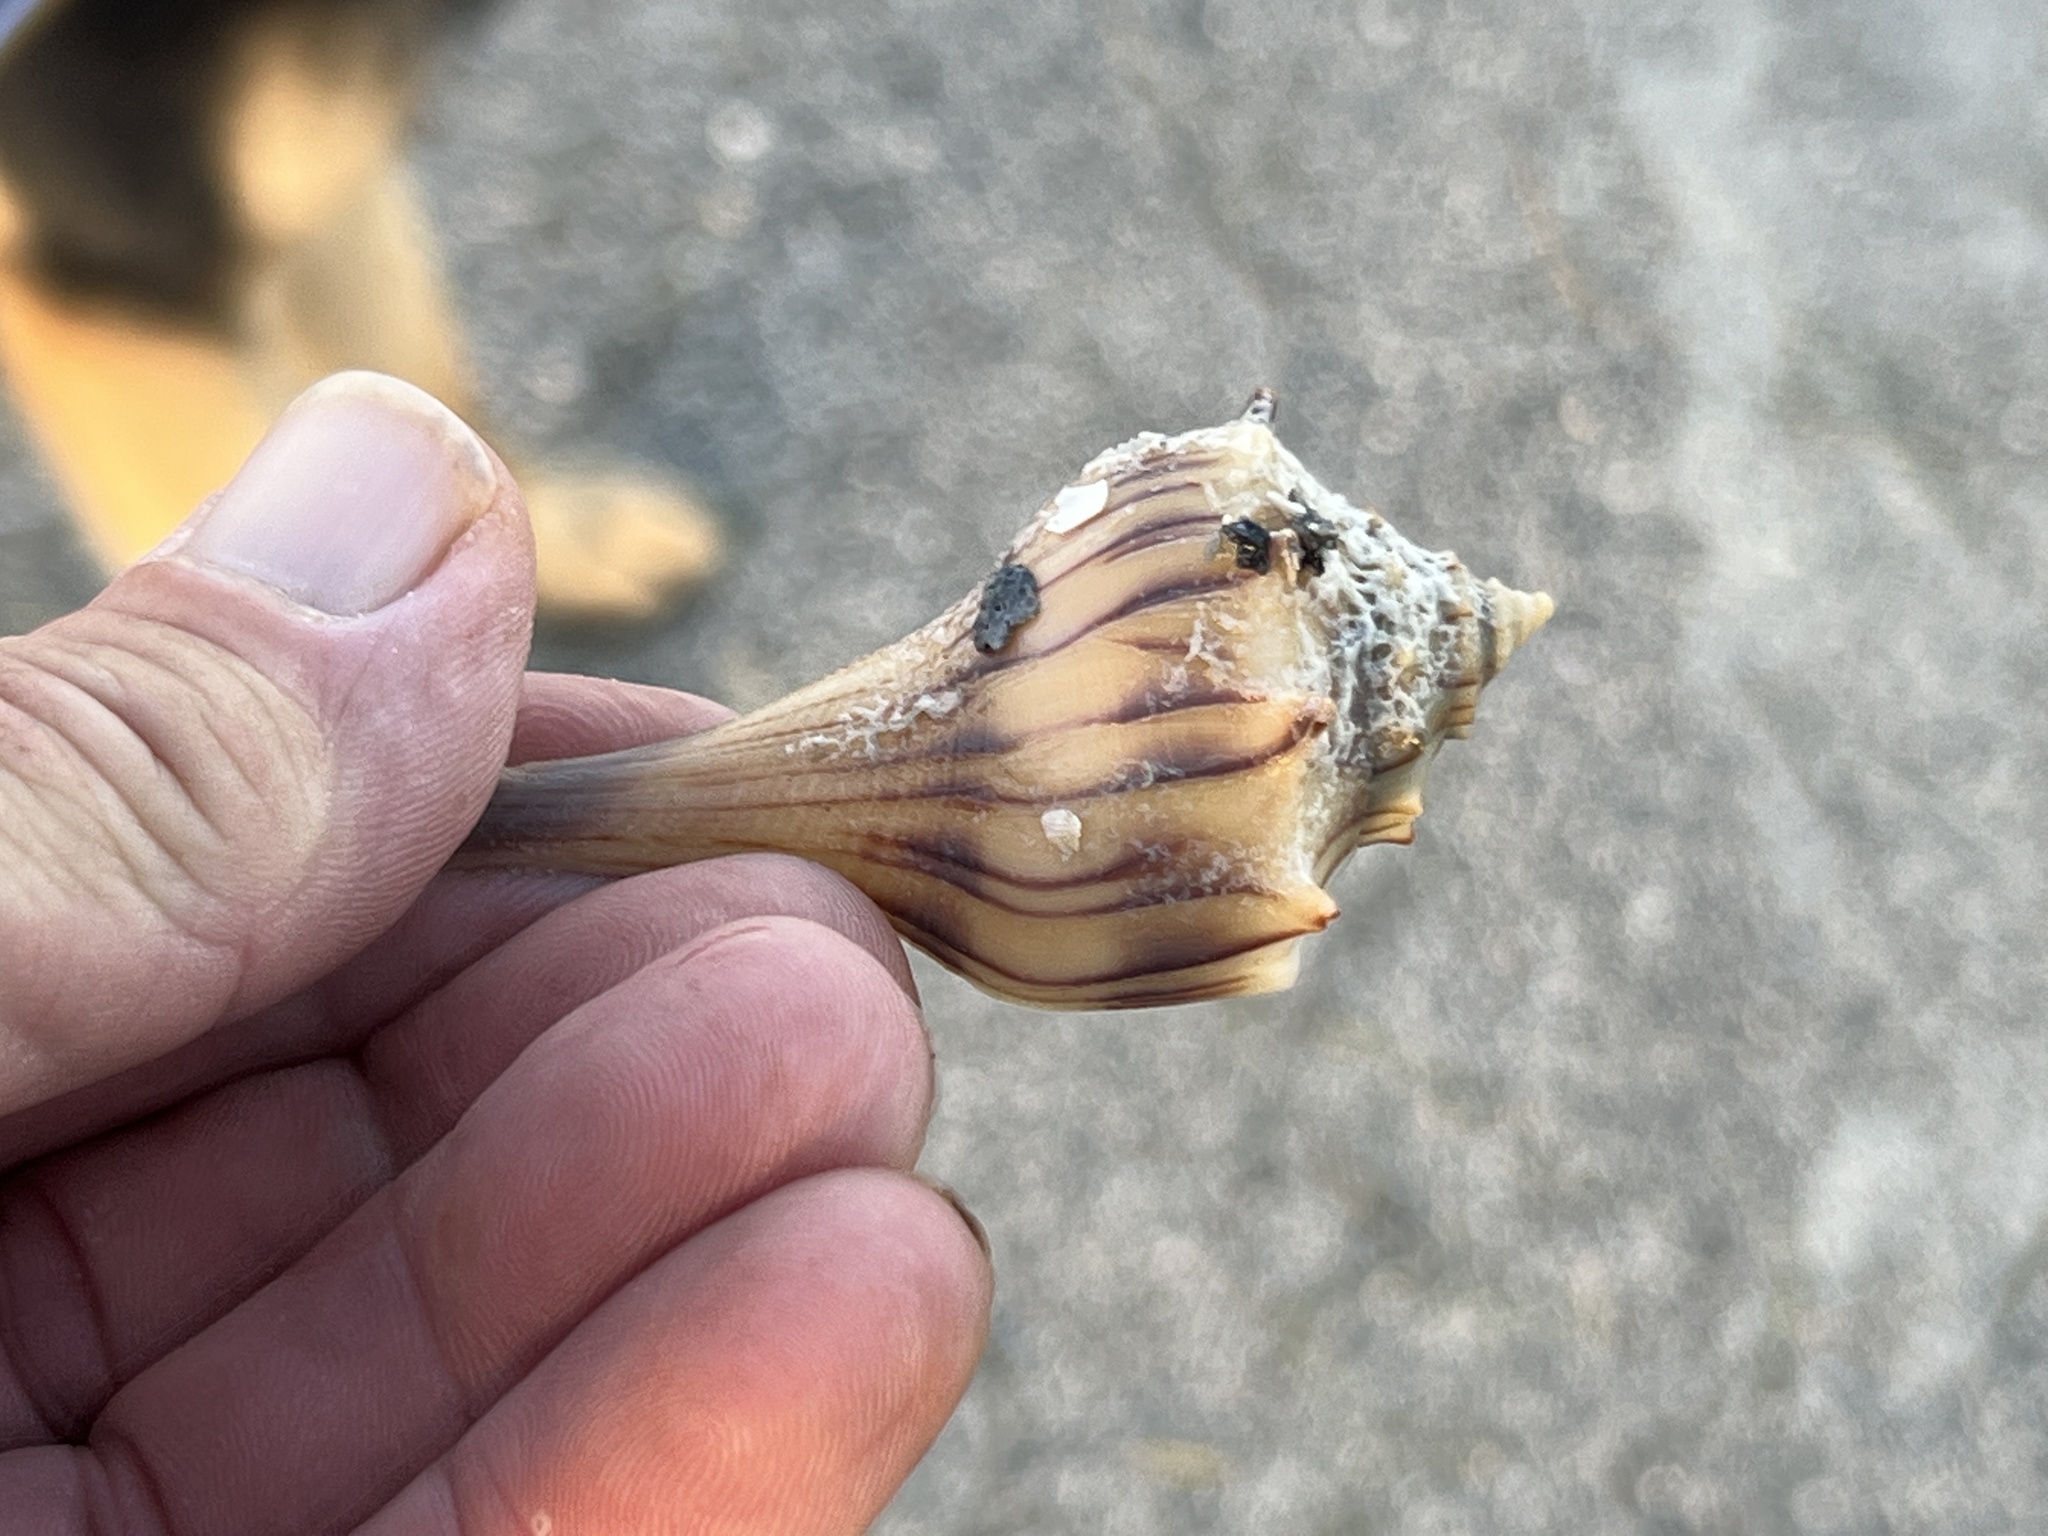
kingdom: Animalia
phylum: Mollusca
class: Gastropoda
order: Neogastropoda
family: Busyconidae
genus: Sinistrofulgur
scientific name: Sinistrofulgur pulleyi
